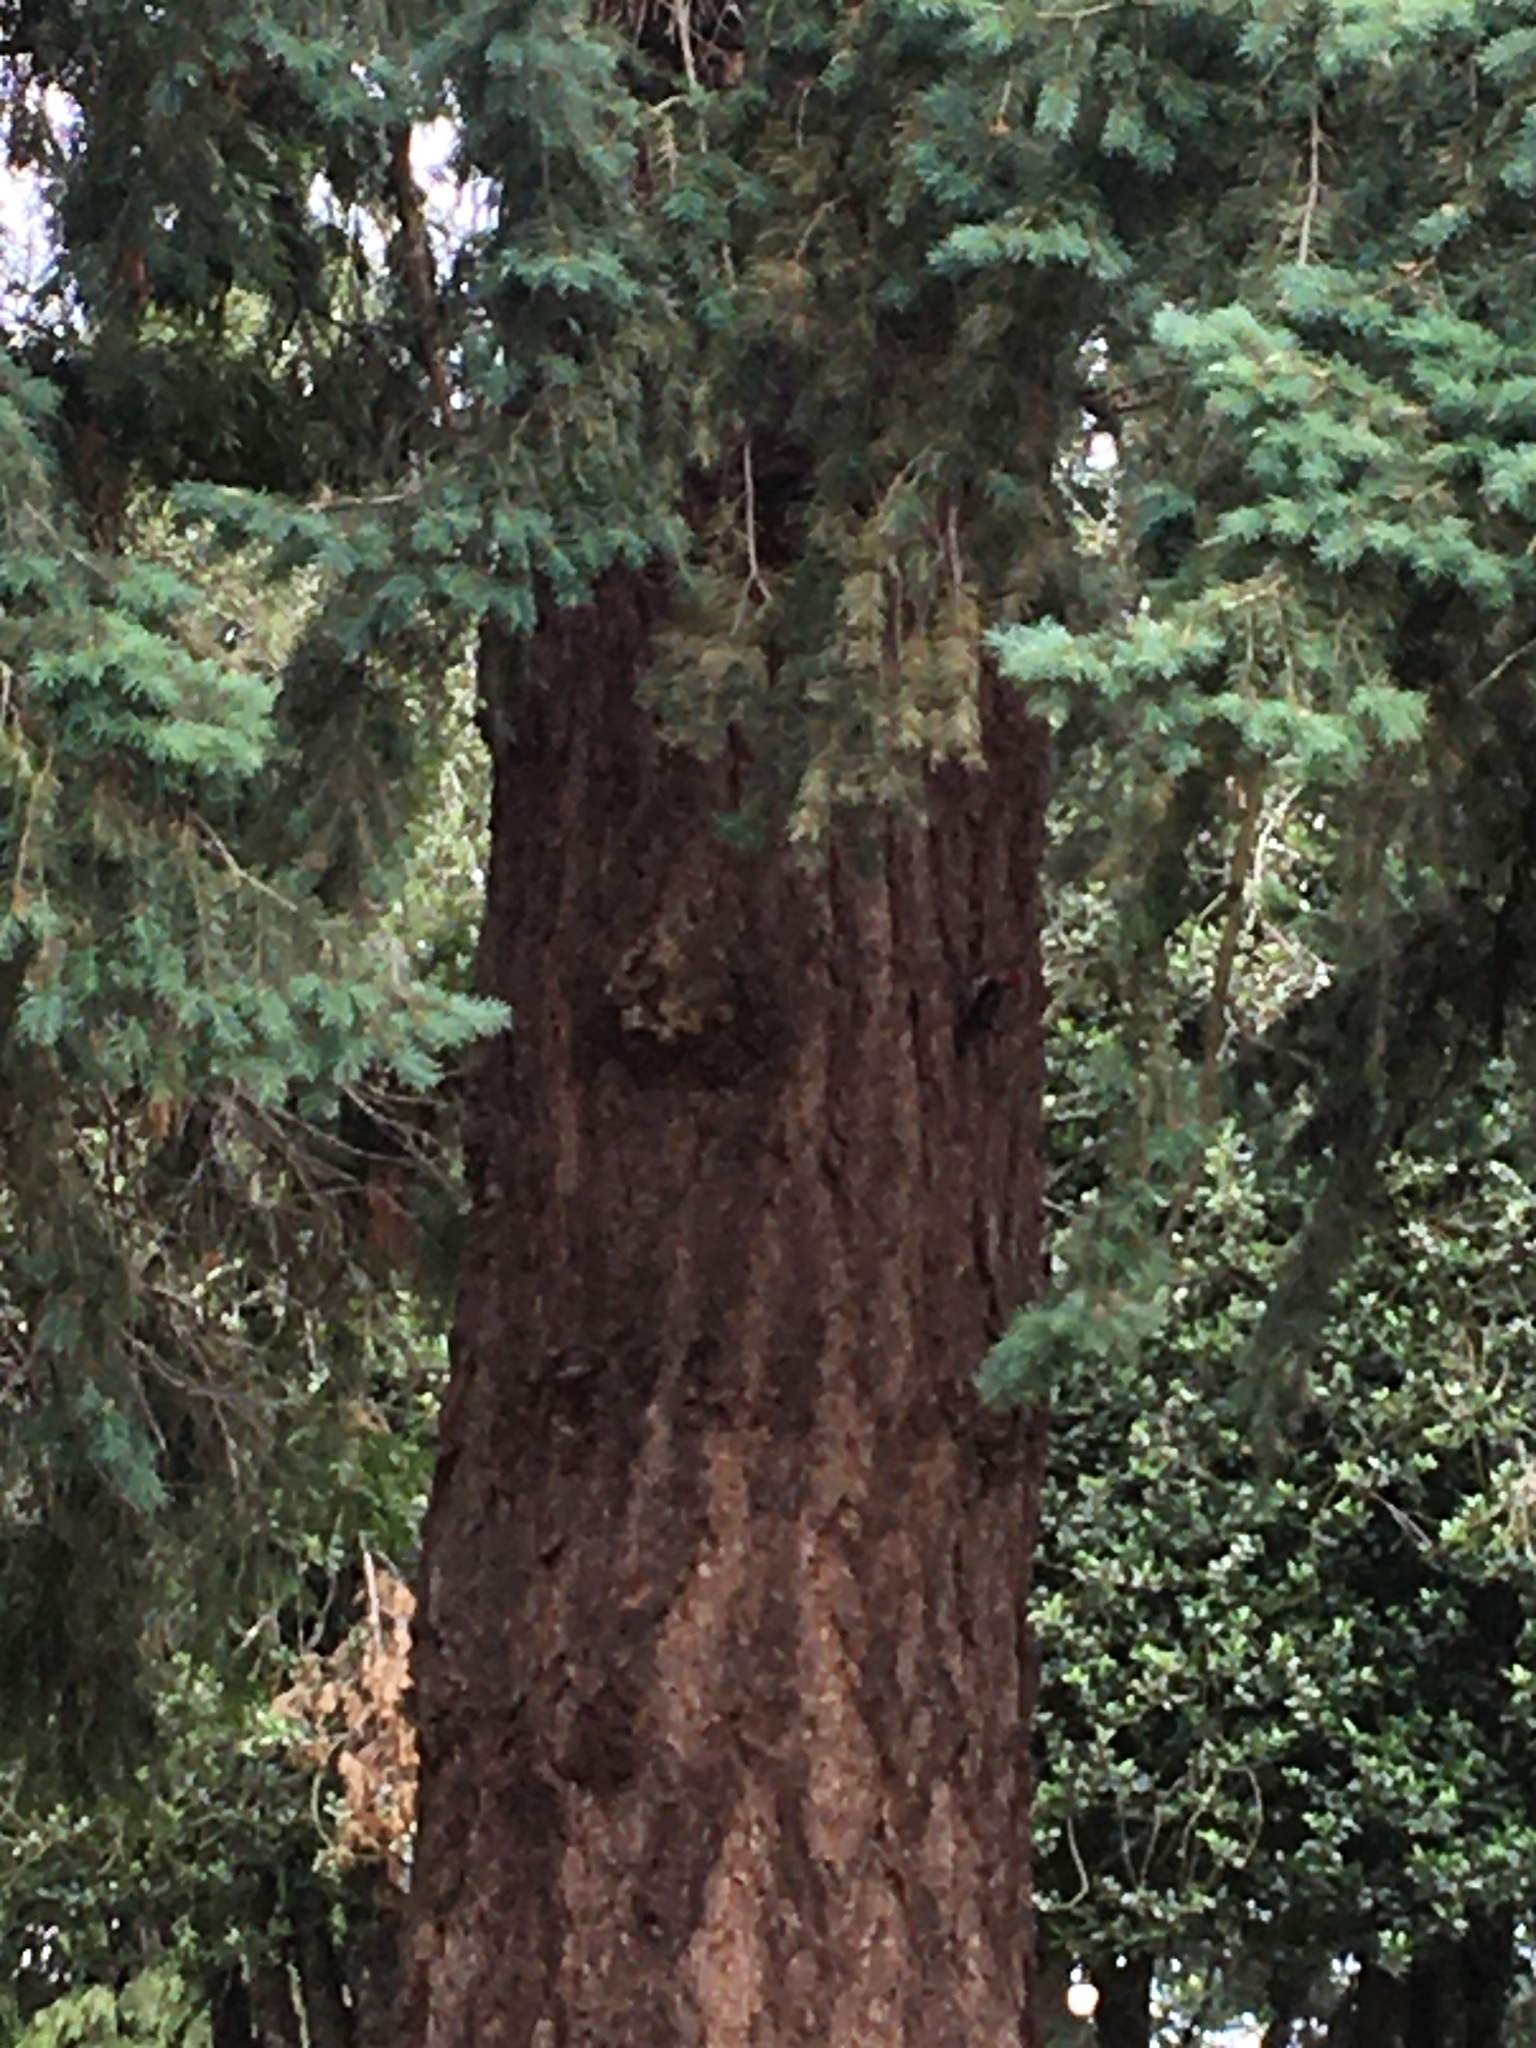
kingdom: Animalia
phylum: Chordata
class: Aves
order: Piciformes
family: Picidae
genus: Sphyrapicus
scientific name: Sphyrapicus ruber
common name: Red-breasted sapsucker
